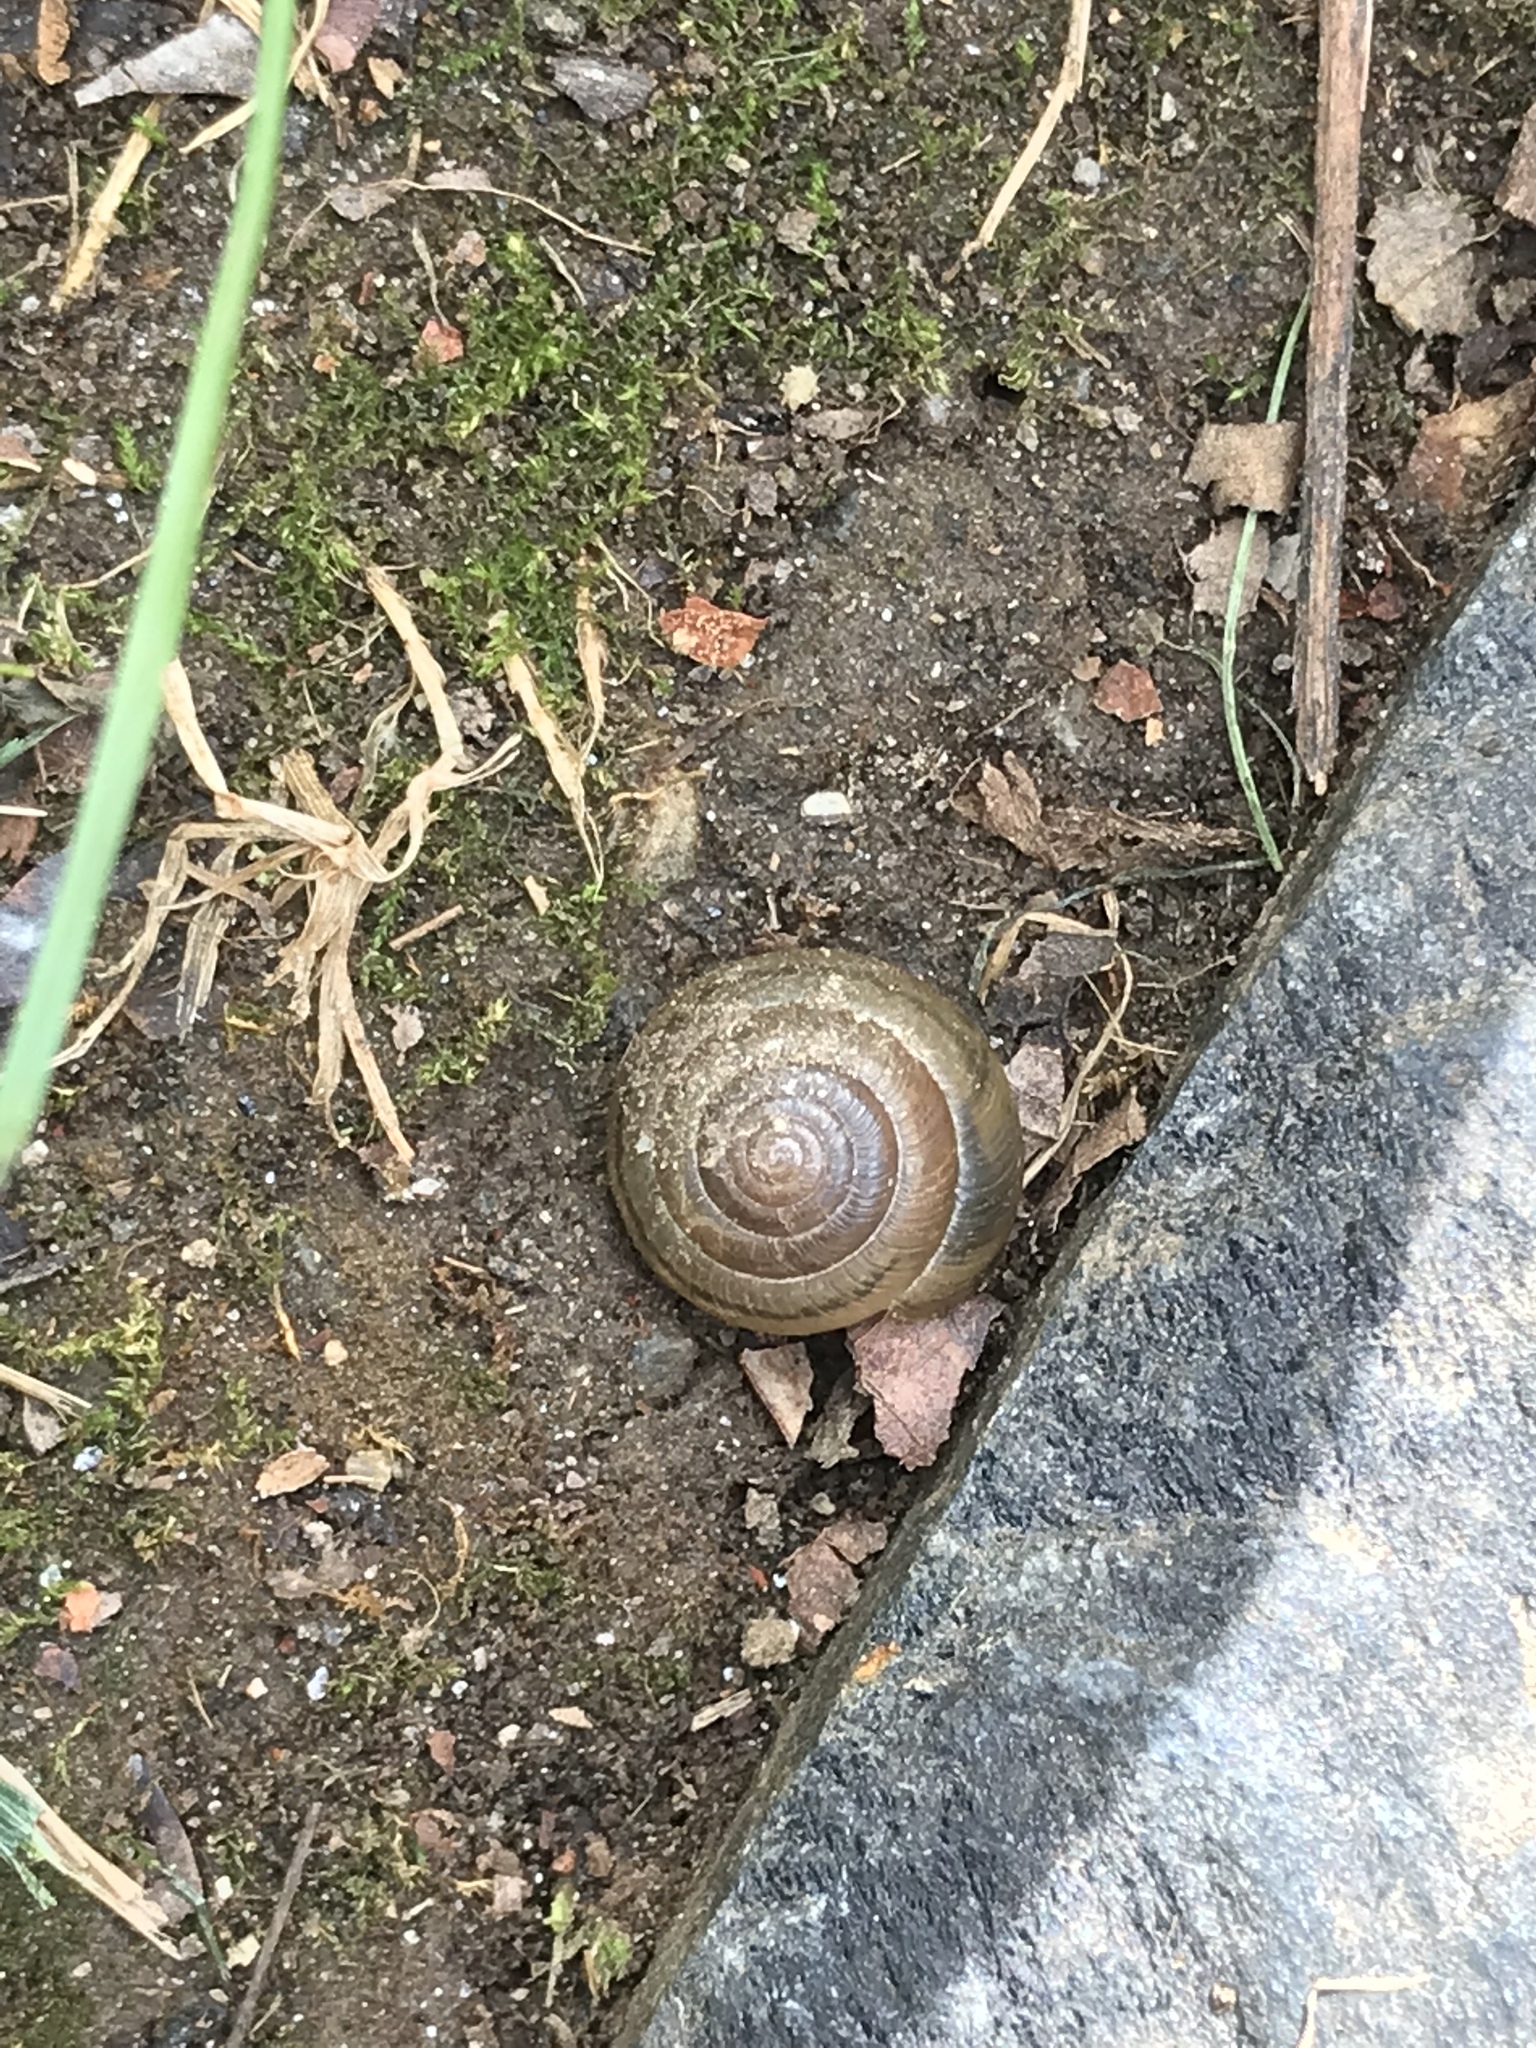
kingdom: Animalia
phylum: Mollusca
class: Gastropoda
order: Stylommatophora
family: Gastrodontidae
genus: Ventridens
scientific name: Ventridens ligera
